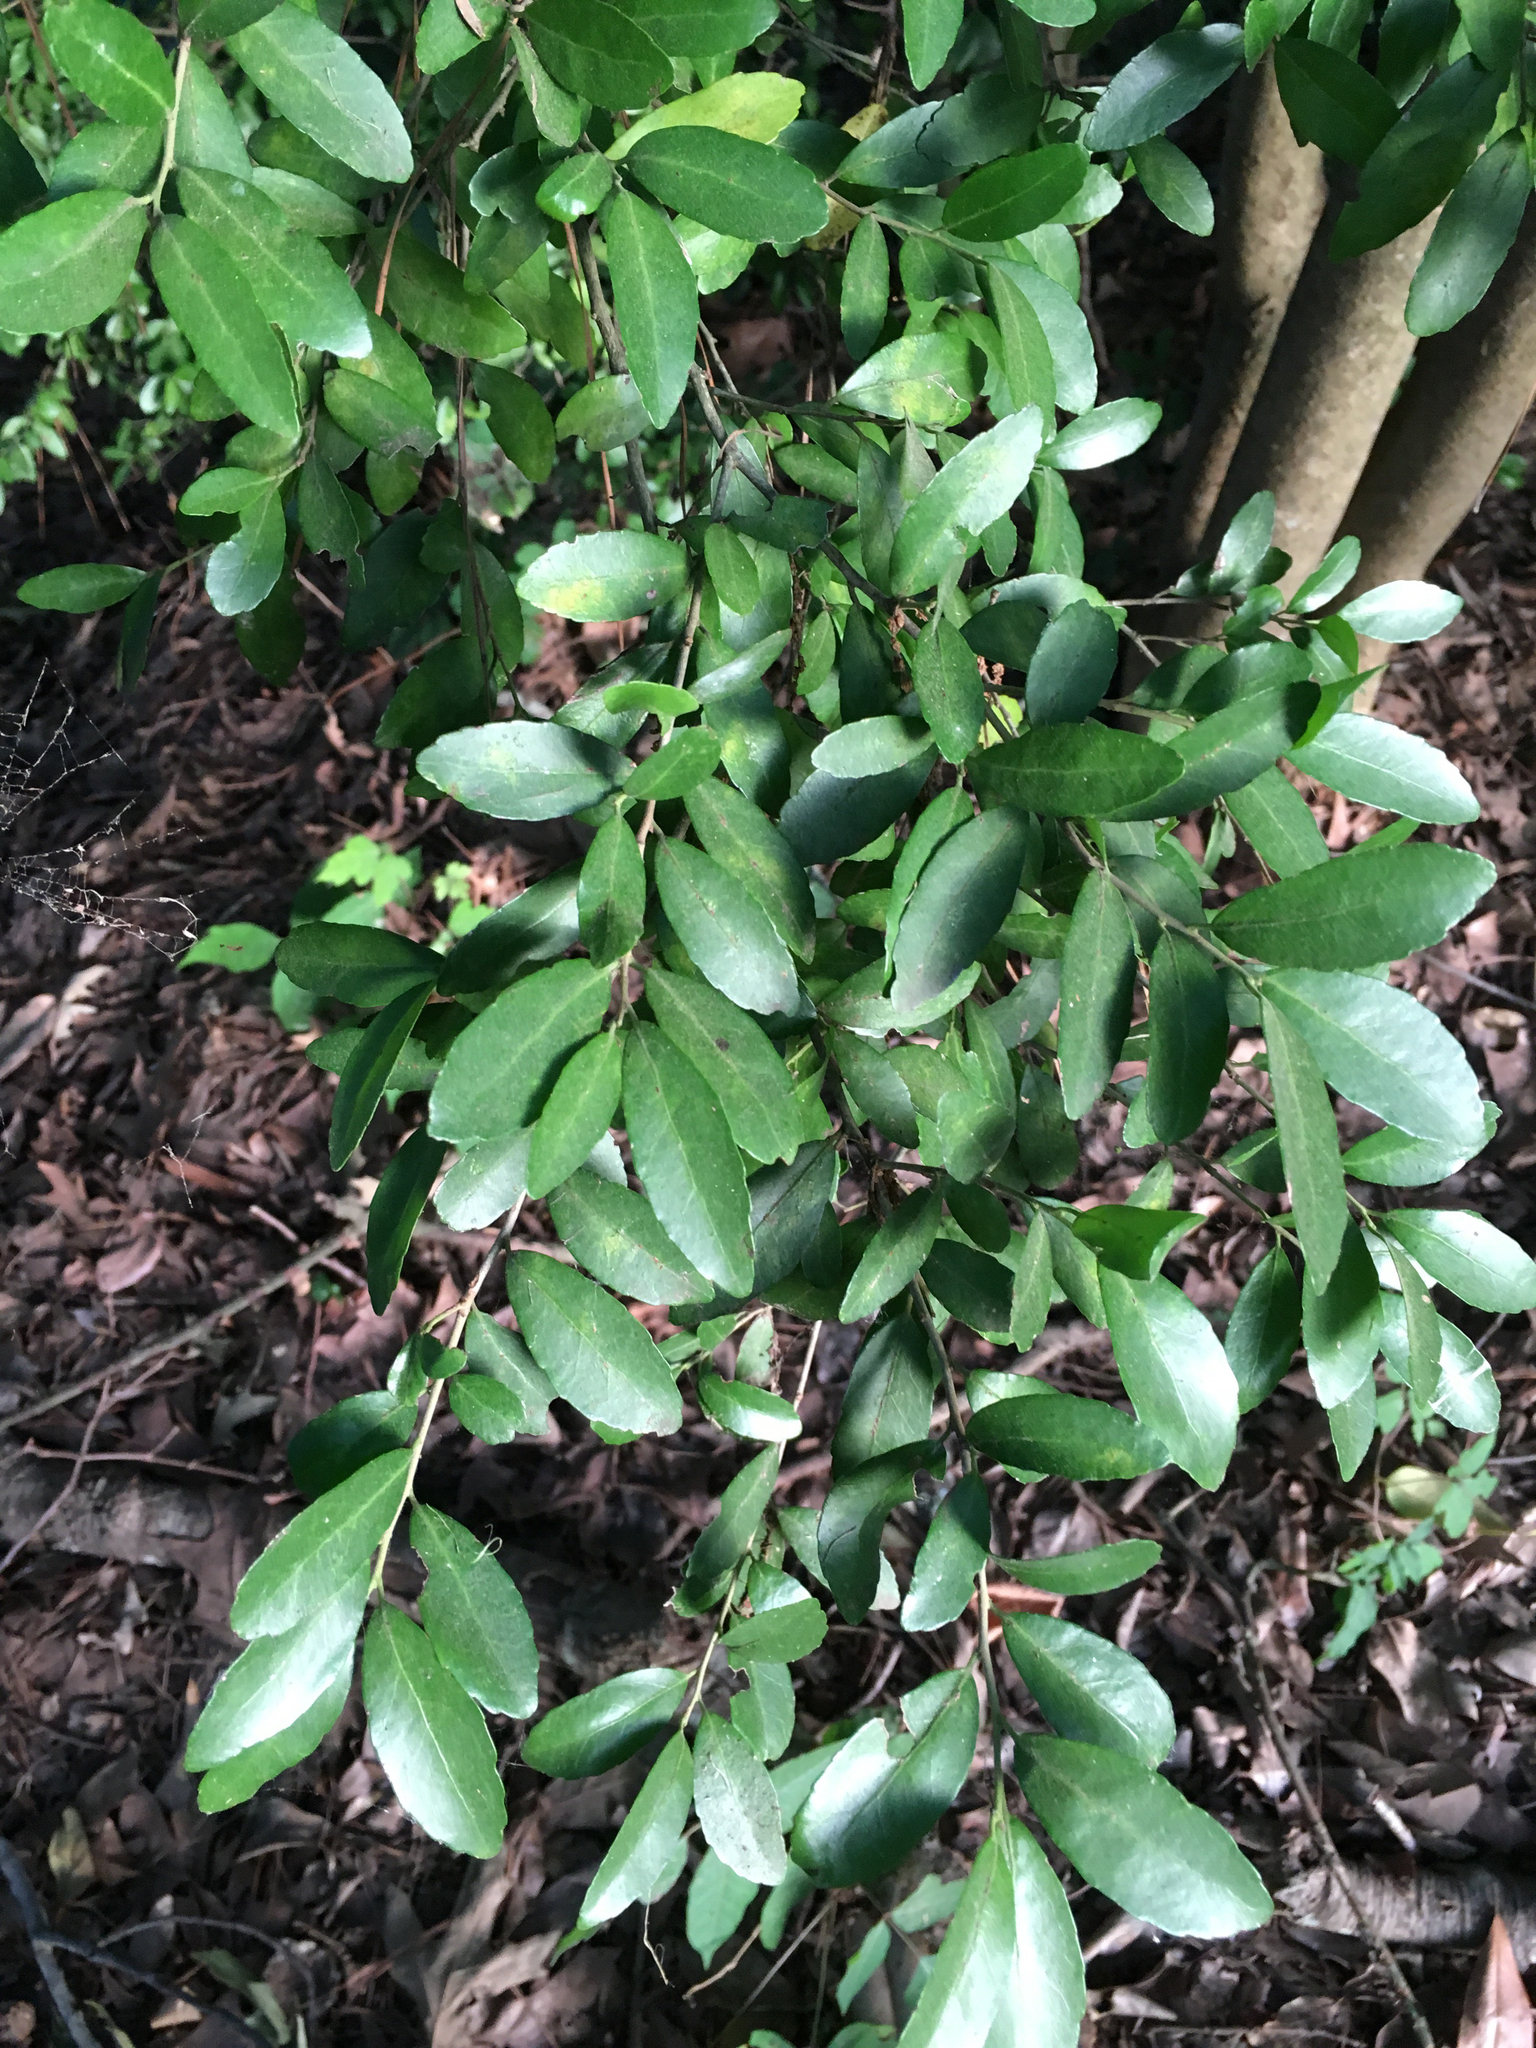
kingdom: Plantae
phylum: Tracheophyta
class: Magnoliopsida
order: Aquifoliales
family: Aquifoliaceae
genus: Ilex
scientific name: Ilex vomitoria
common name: Yaupon holly
